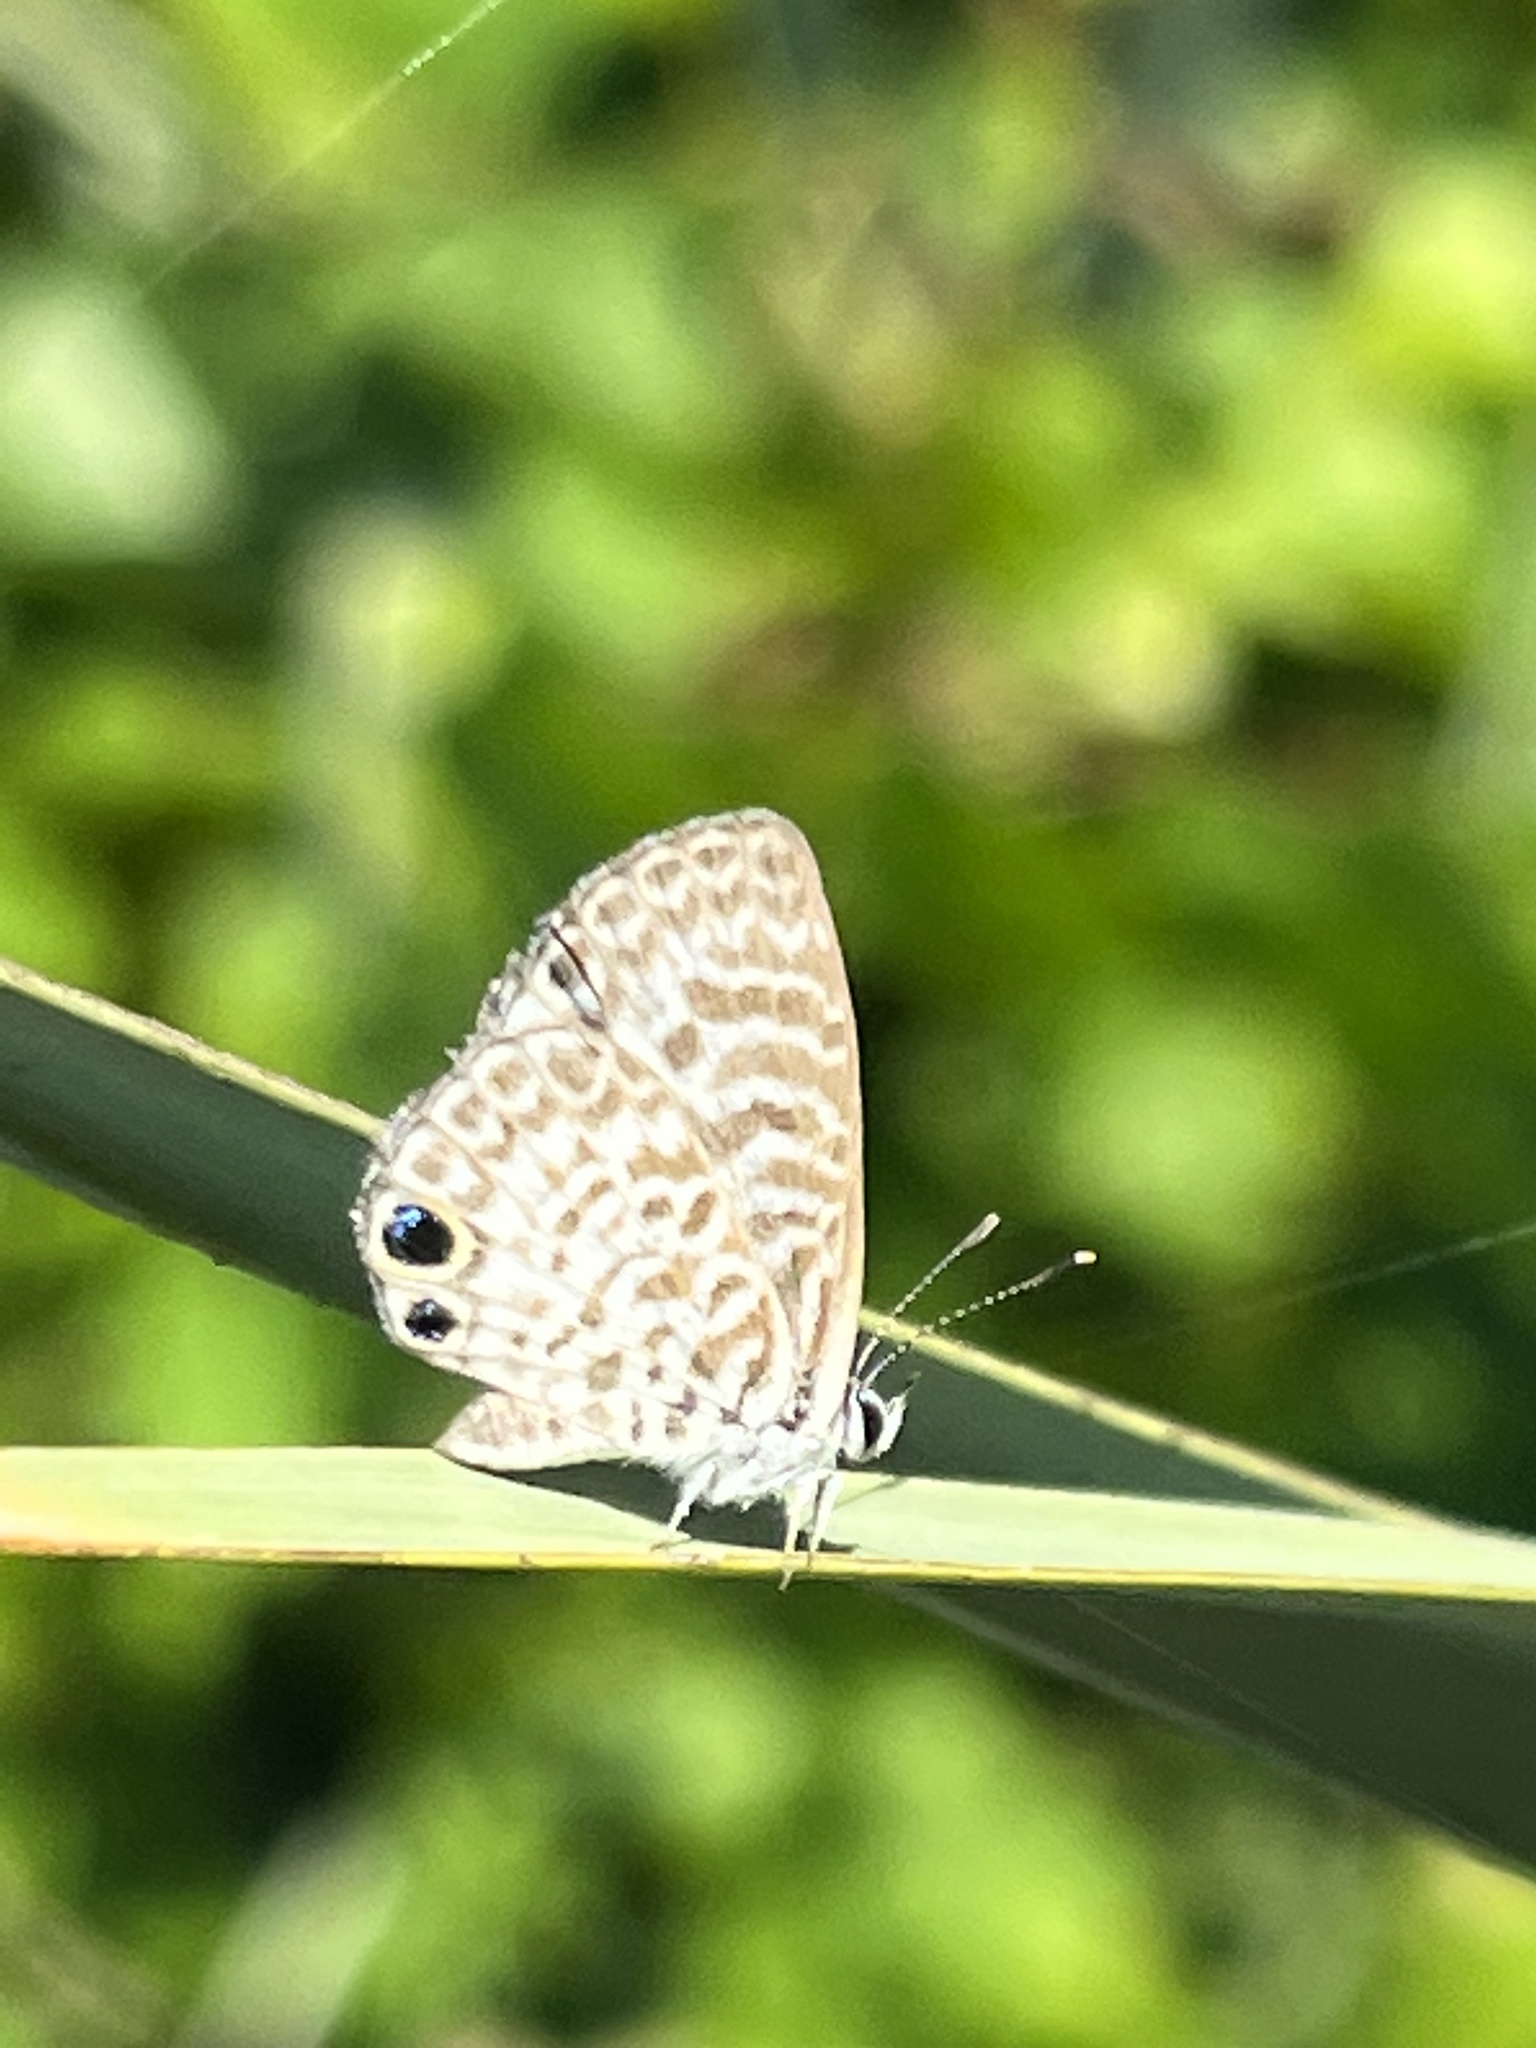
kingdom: Animalia
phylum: Arthropoda
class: Insecta
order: Lepidoptera
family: Lycaenidae
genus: Leptotes
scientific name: Leptotes cassius
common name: Cassius blue
